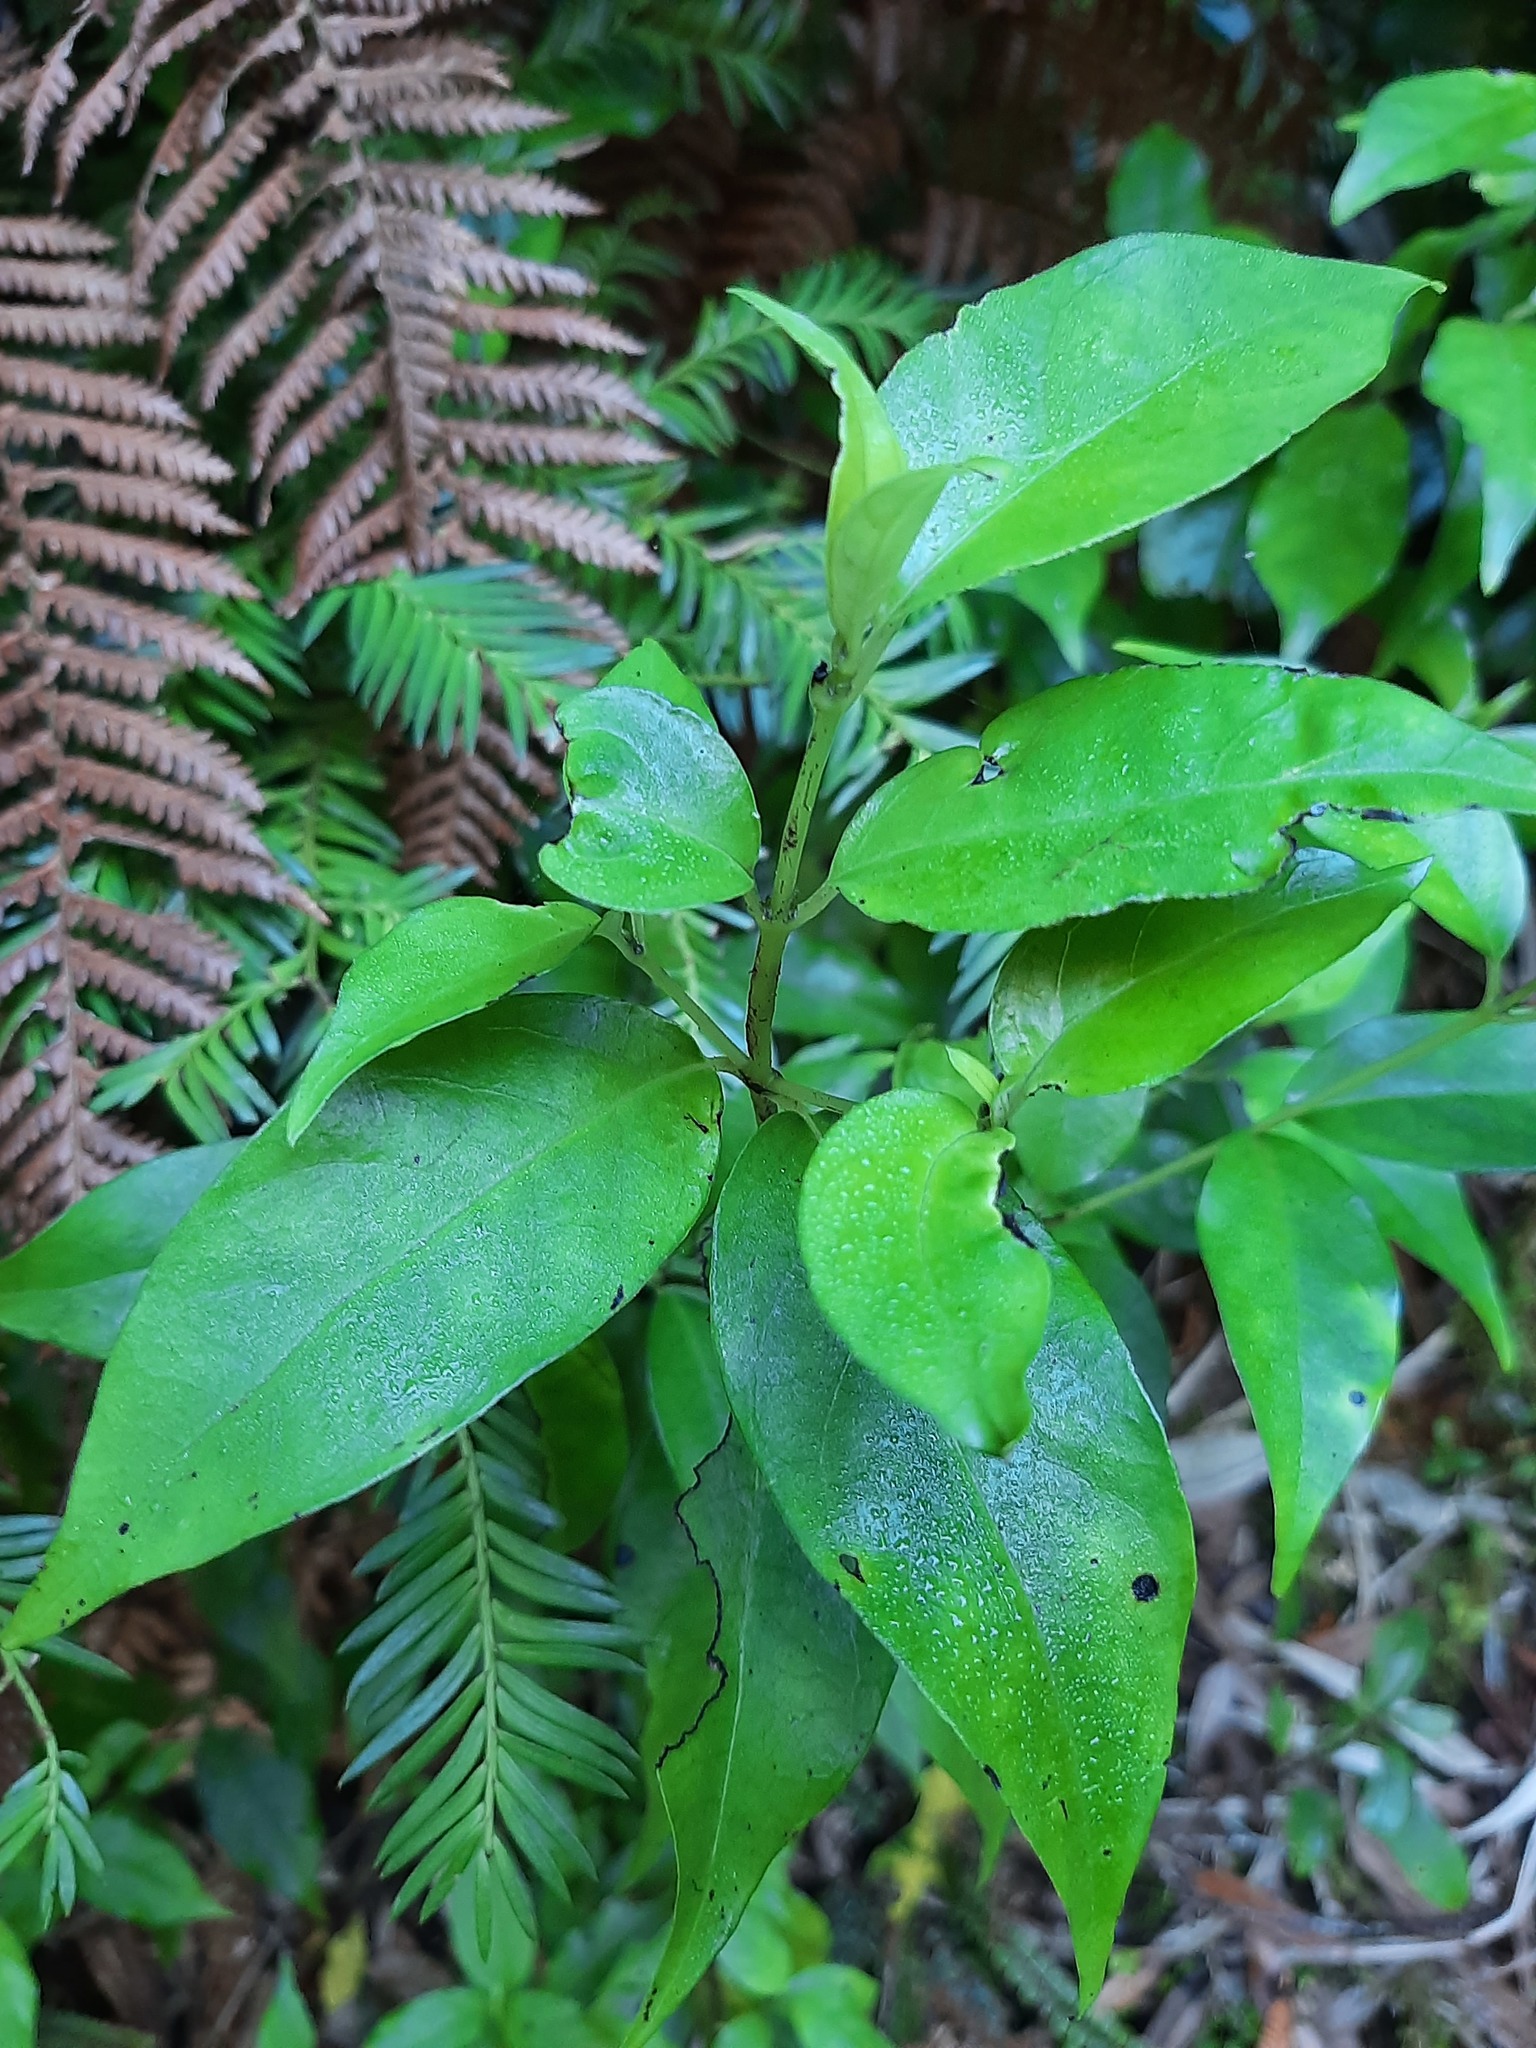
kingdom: Plantae
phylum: Tracheophyta
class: Magnoliopsida
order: Gentianales
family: Loganiaceae
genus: Geniostoma
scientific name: Geniostoma ligustrifolium
